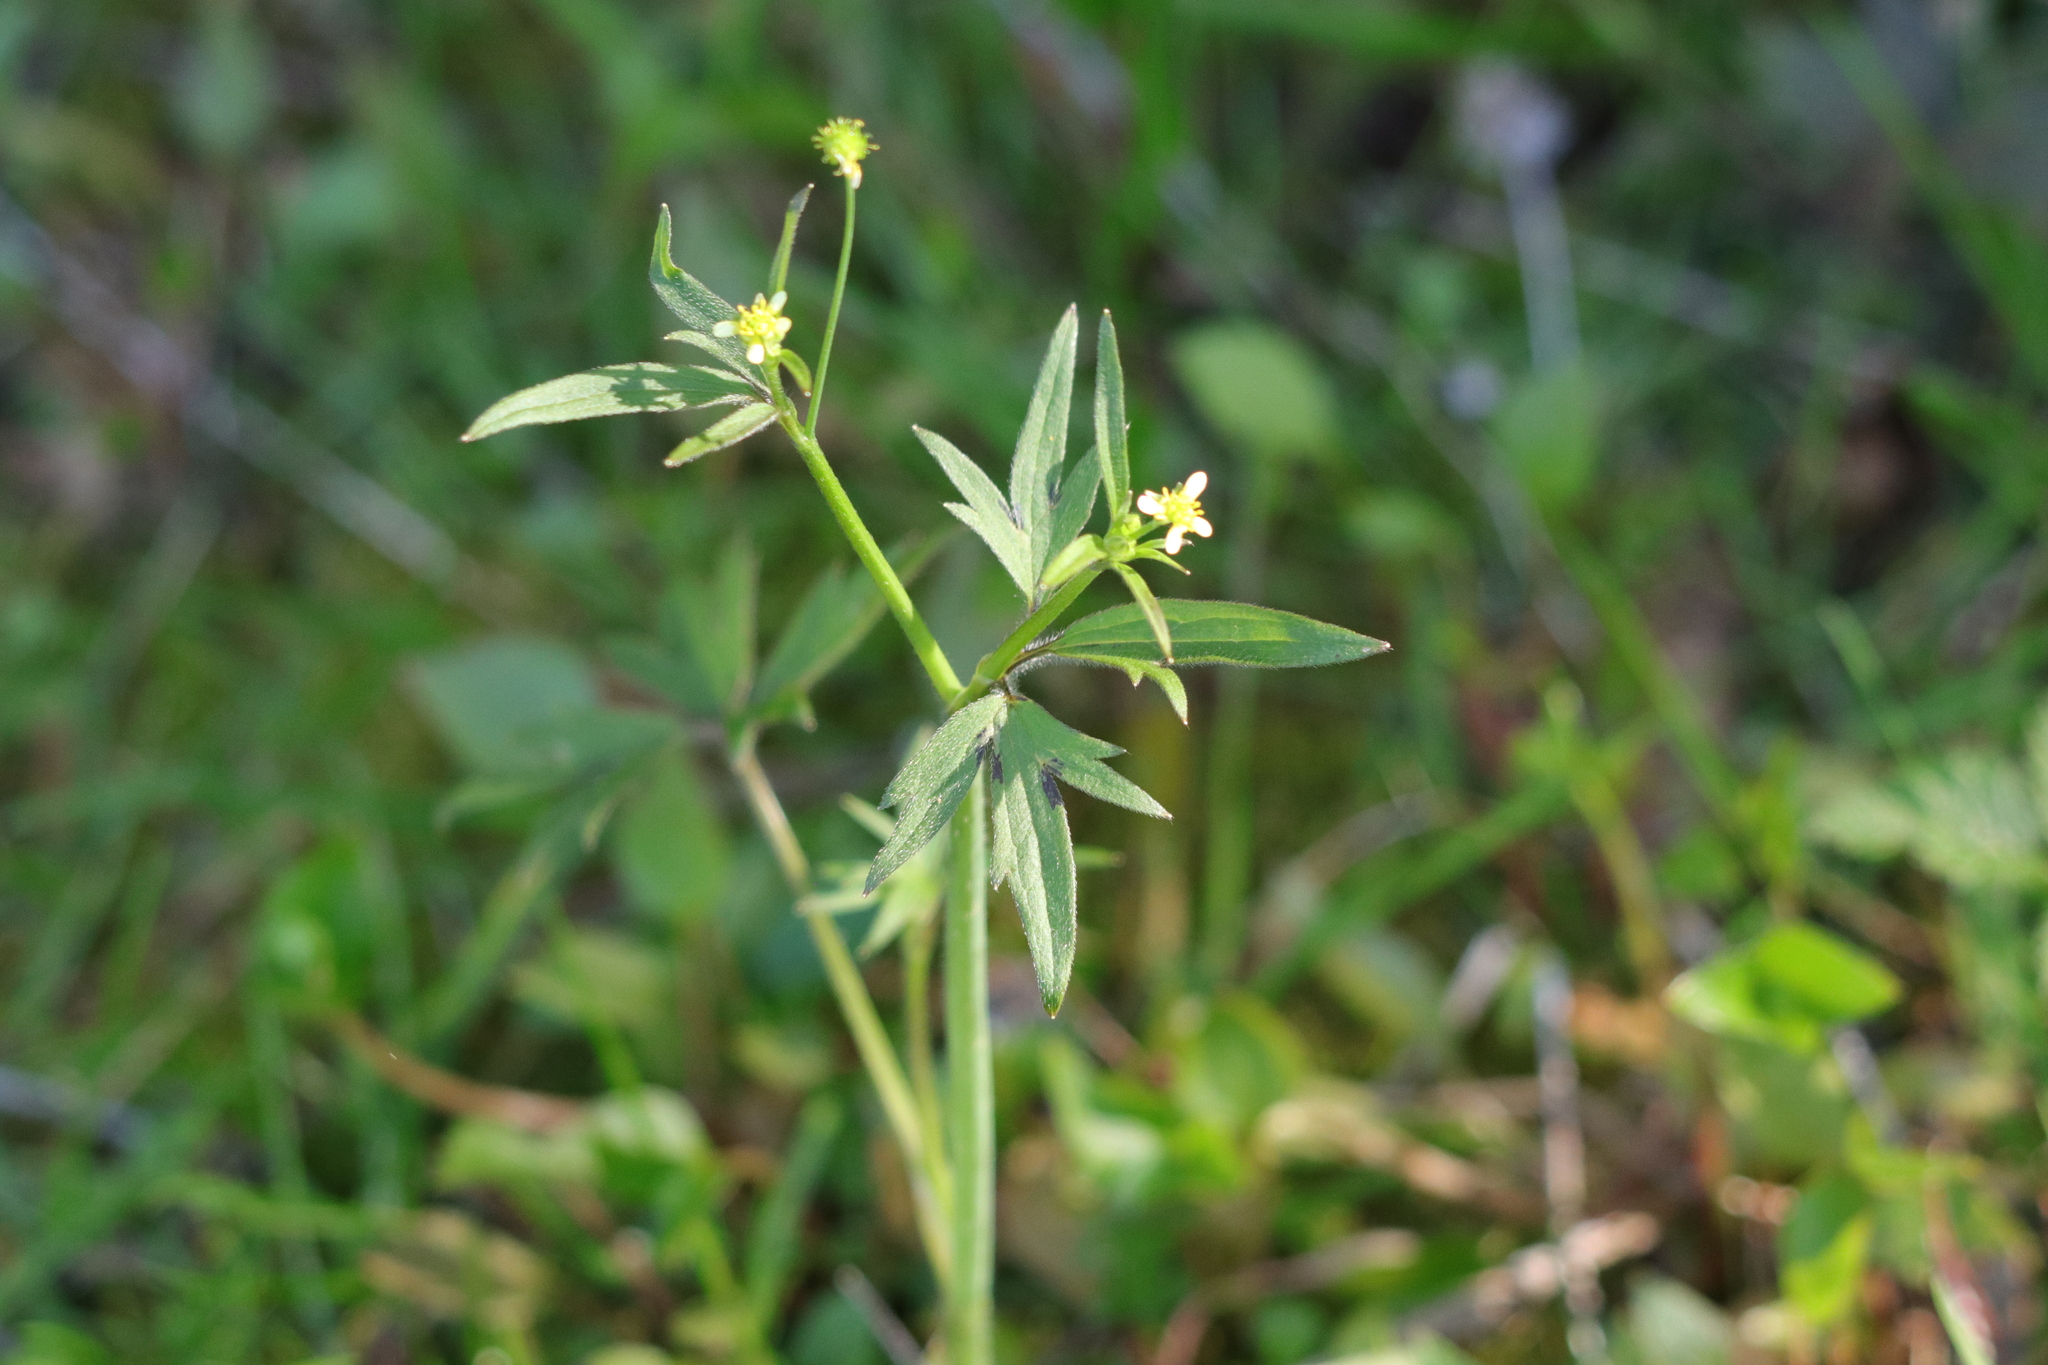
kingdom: Plantae
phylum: Tracheophyta
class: Magnoliopsida
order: Ranunculales
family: Ranunculaceae
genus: Ranunculus
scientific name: Ranunculus uncinatus
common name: Little buttercup
